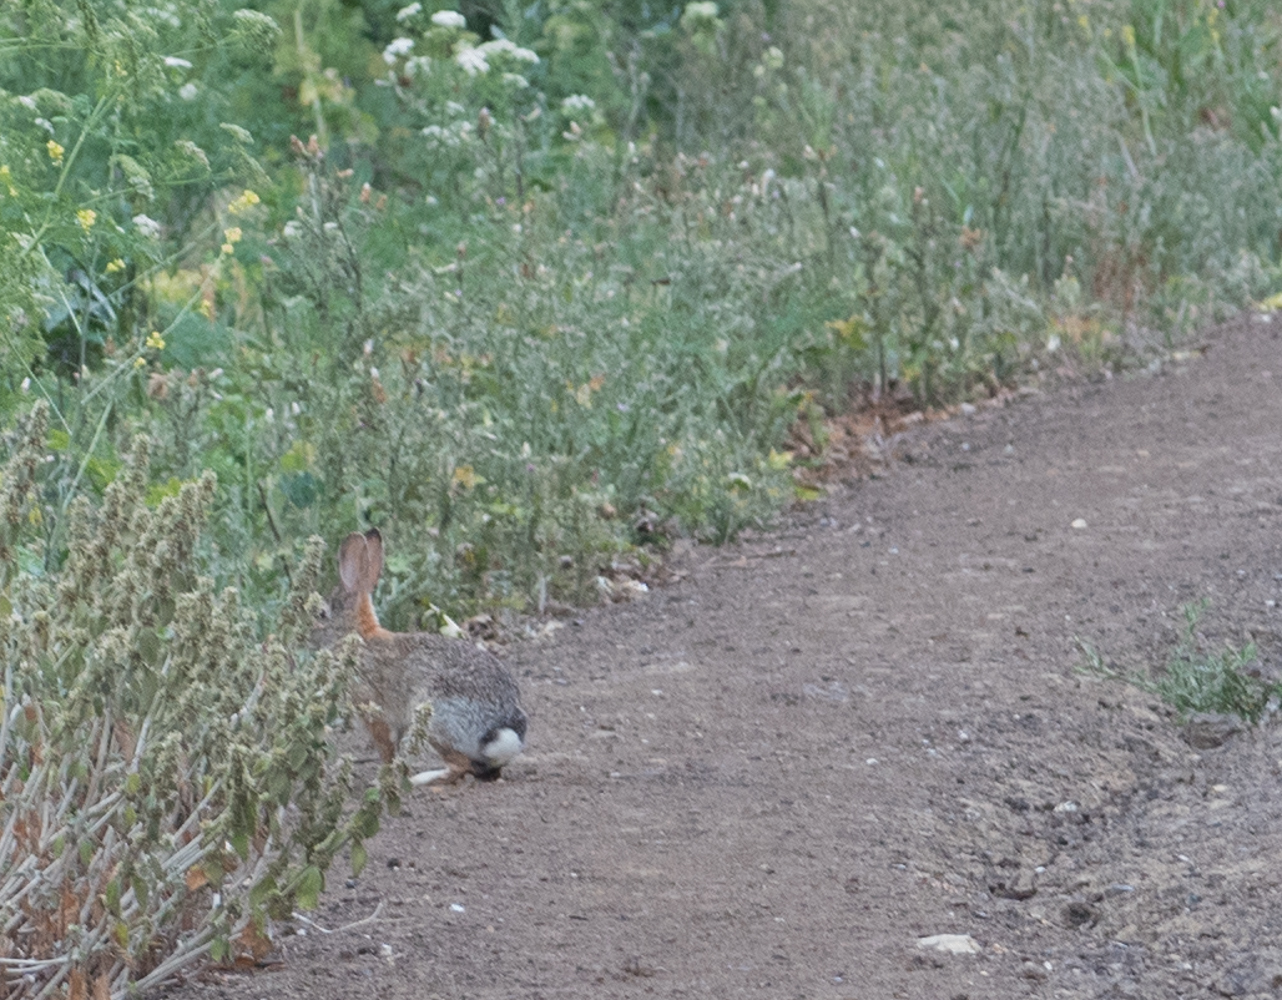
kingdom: Animalia
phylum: Chordata
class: Mammalia
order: Lagomorpha
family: Leporidae
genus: Sylvilagus
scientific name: Sylvilagus audubonii
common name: Desert cottontail
